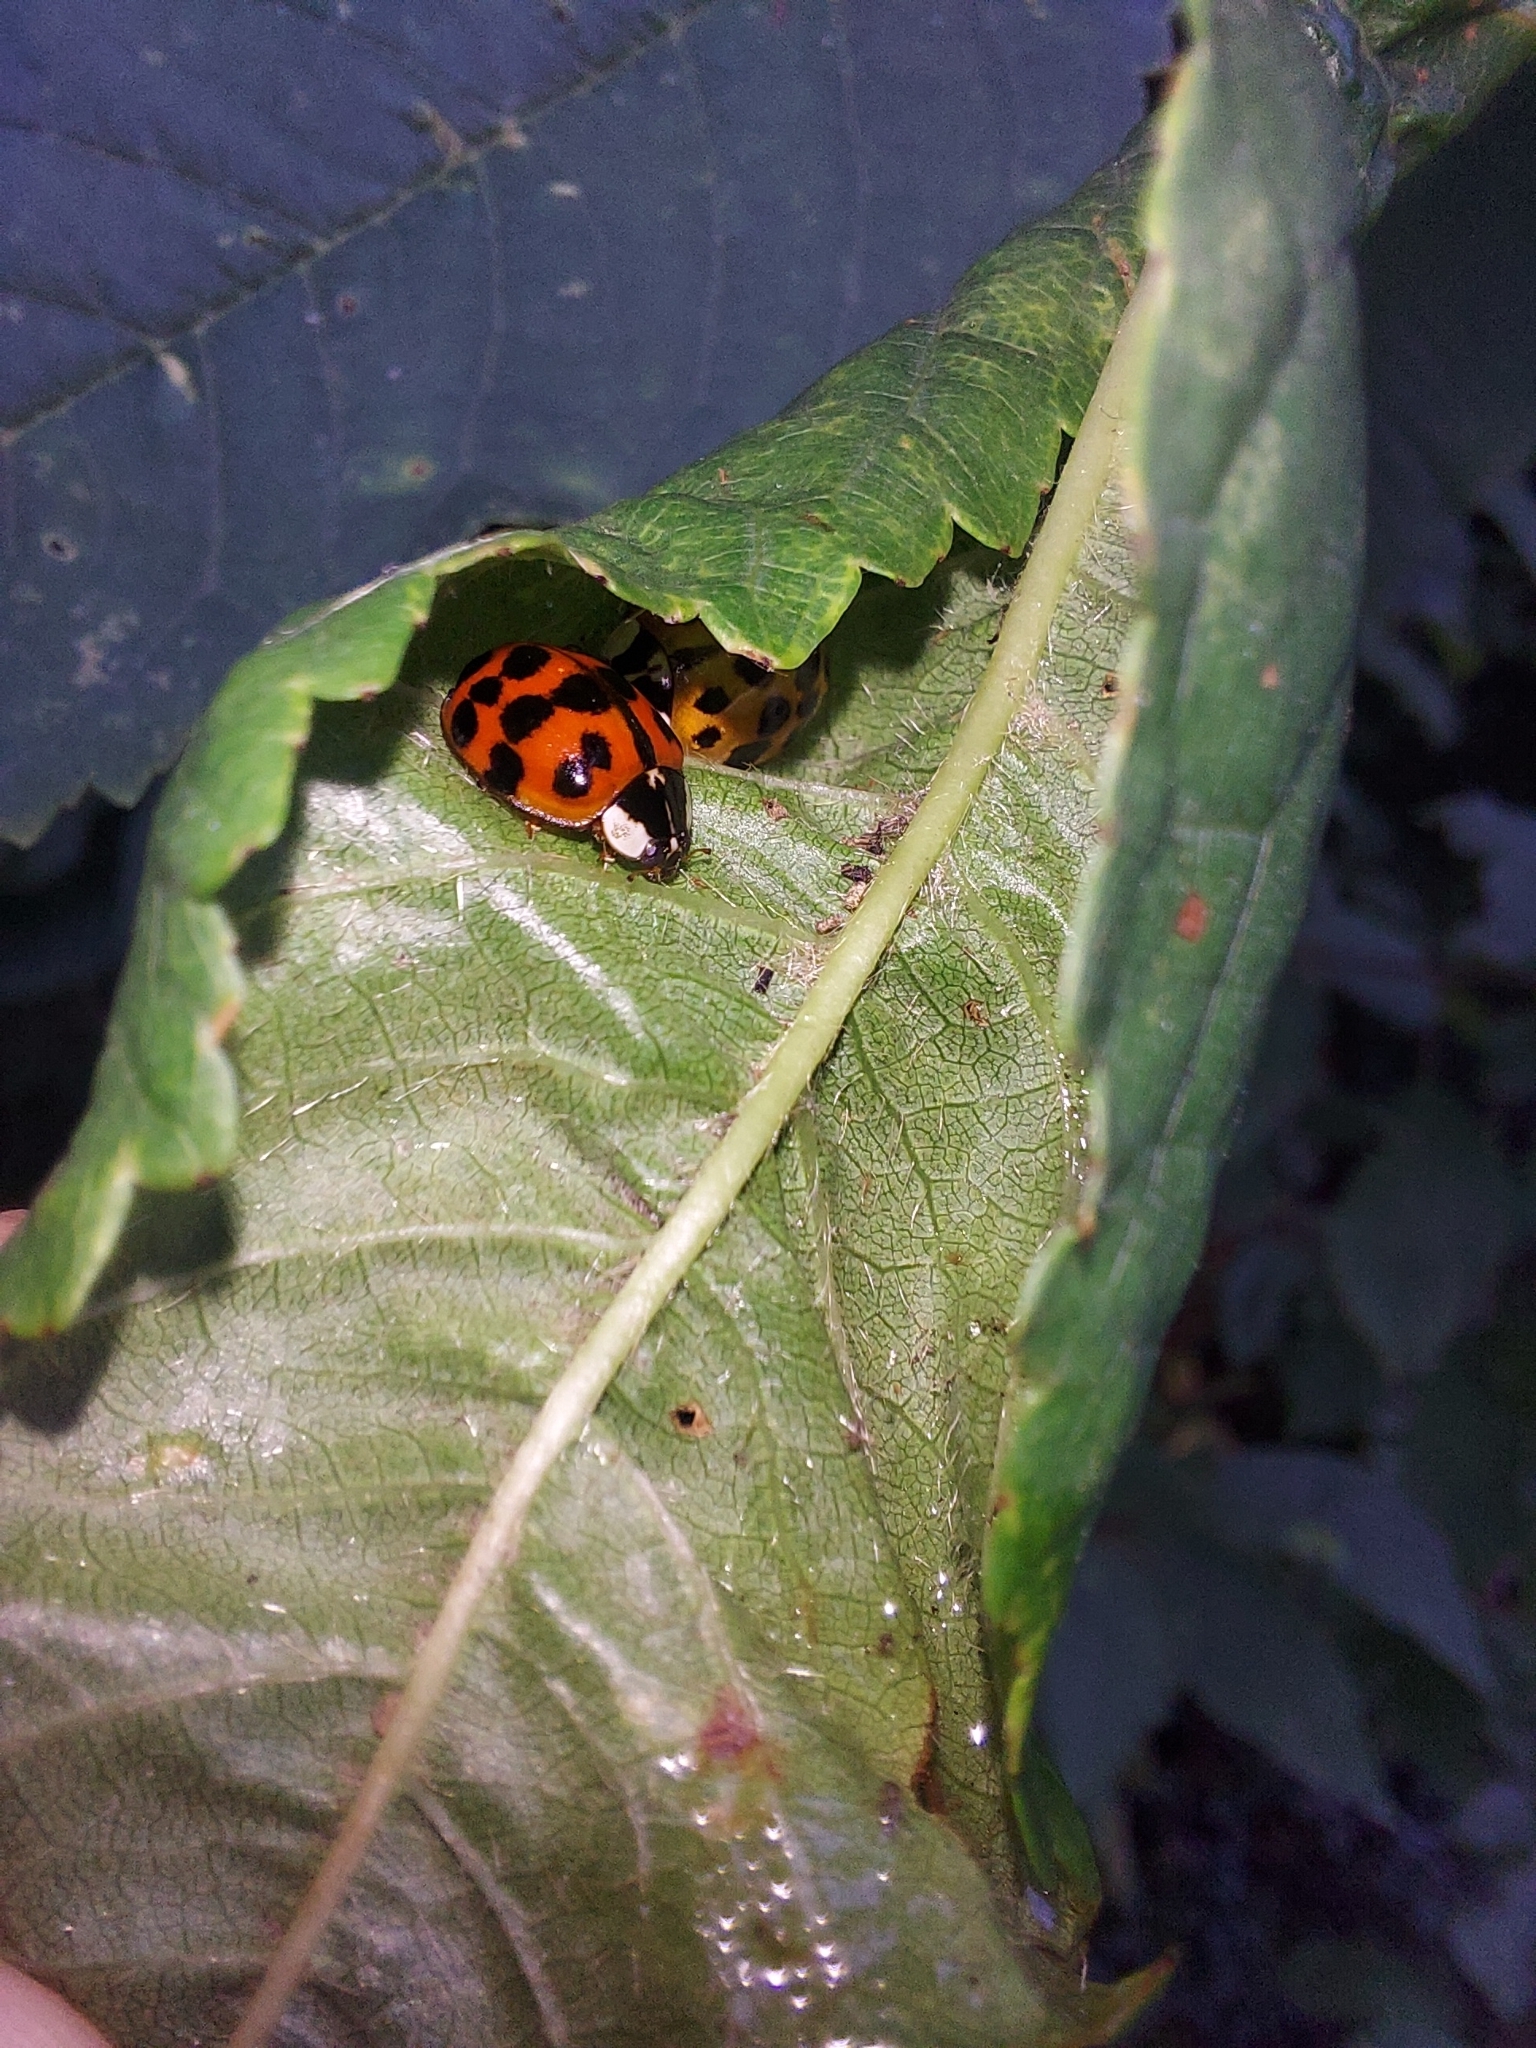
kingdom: Animalia
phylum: Arthropoda
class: Insecta
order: Coleoptera
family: Coccinellidae
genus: Harmonia
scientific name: Harmonia axyridis
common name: Harlequin ladybird
